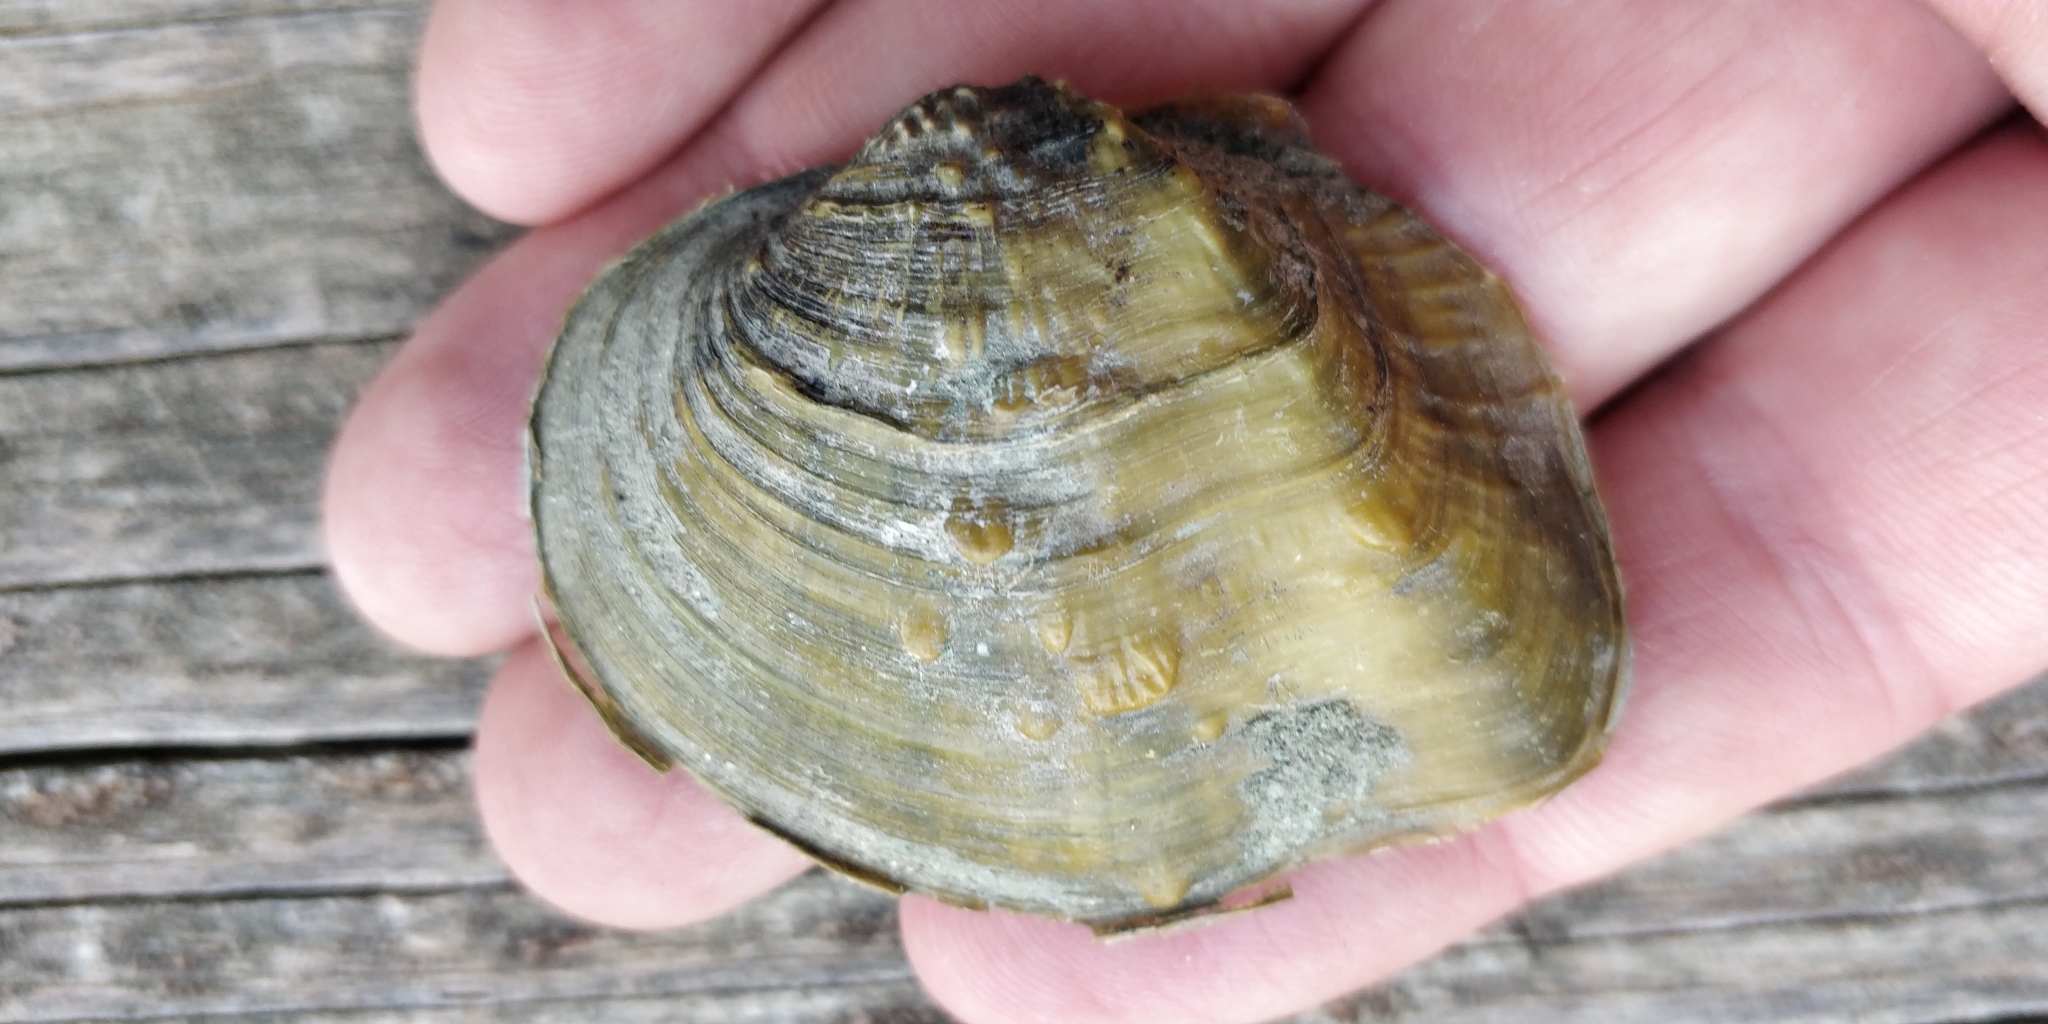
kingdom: Animalia
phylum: Mollusca
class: Bivalvia
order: Unionida
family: Unionidae
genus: Quadrula
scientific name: Quadrula quadrula
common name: Mapleleaf
